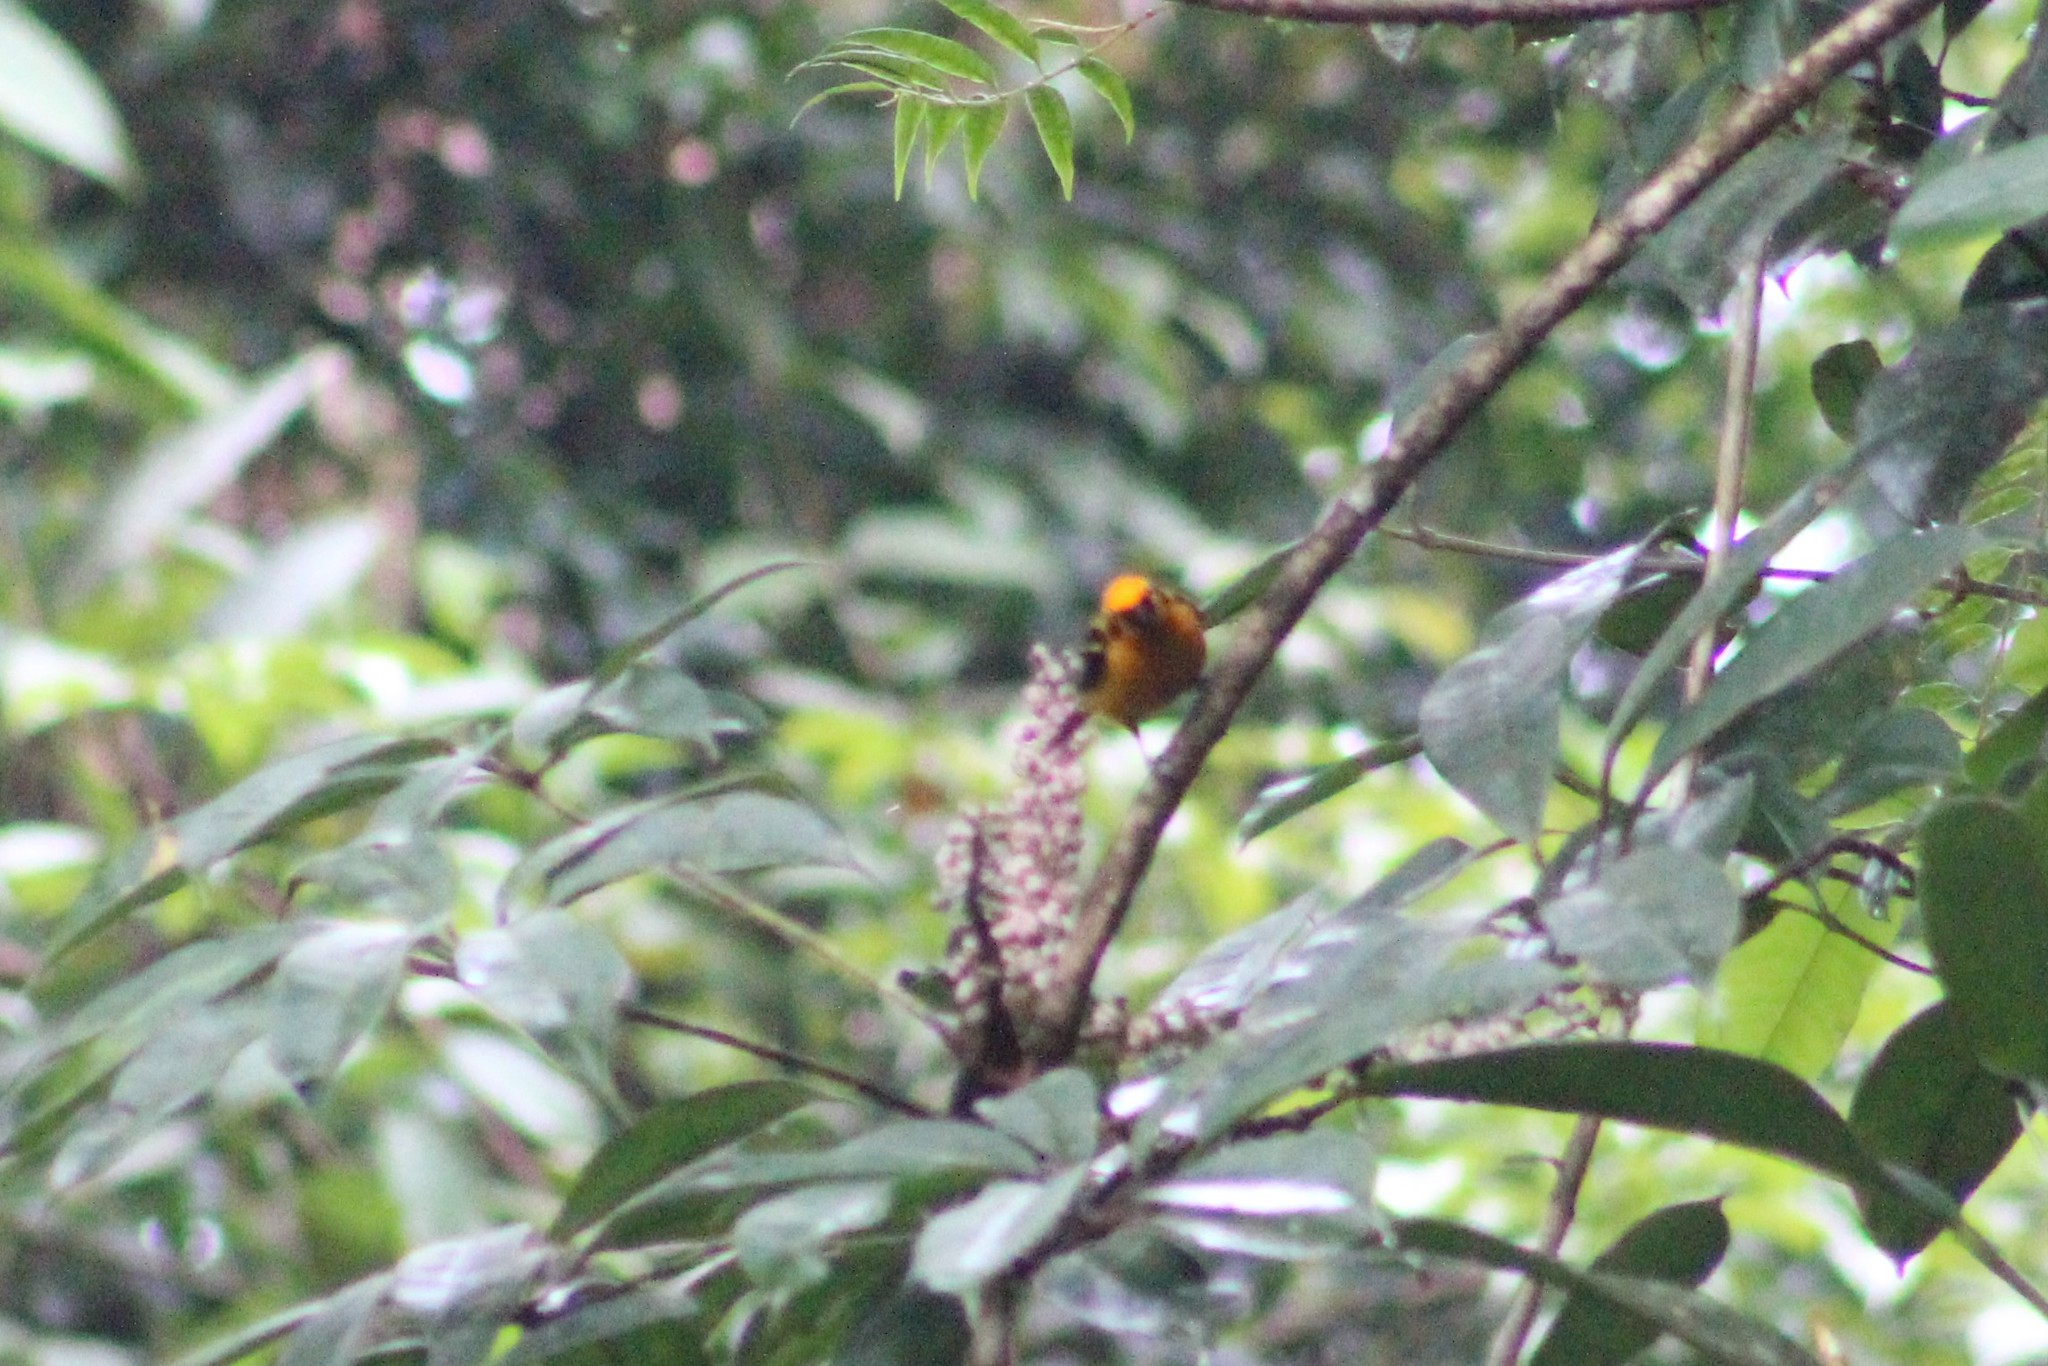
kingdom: Animalia
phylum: Chordata
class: Aves
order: Passeriformes
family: Thraupidae
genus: Tangara
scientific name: Tangara arthus
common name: Golden tanager
